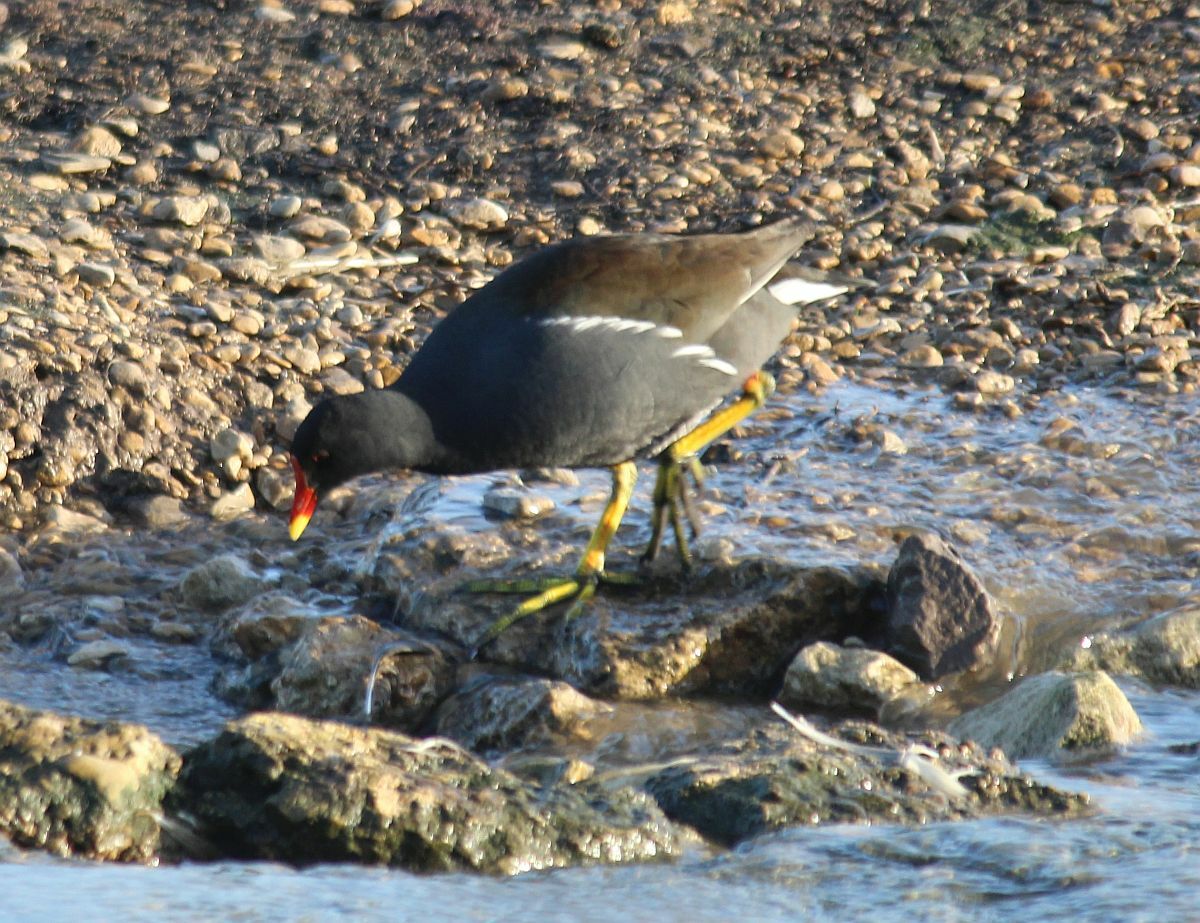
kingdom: Animalia
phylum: Chordata
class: Aves
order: Gruiformes
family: Rallidae
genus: Gallinula
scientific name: Gallinula chloropus
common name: Common moorhen
